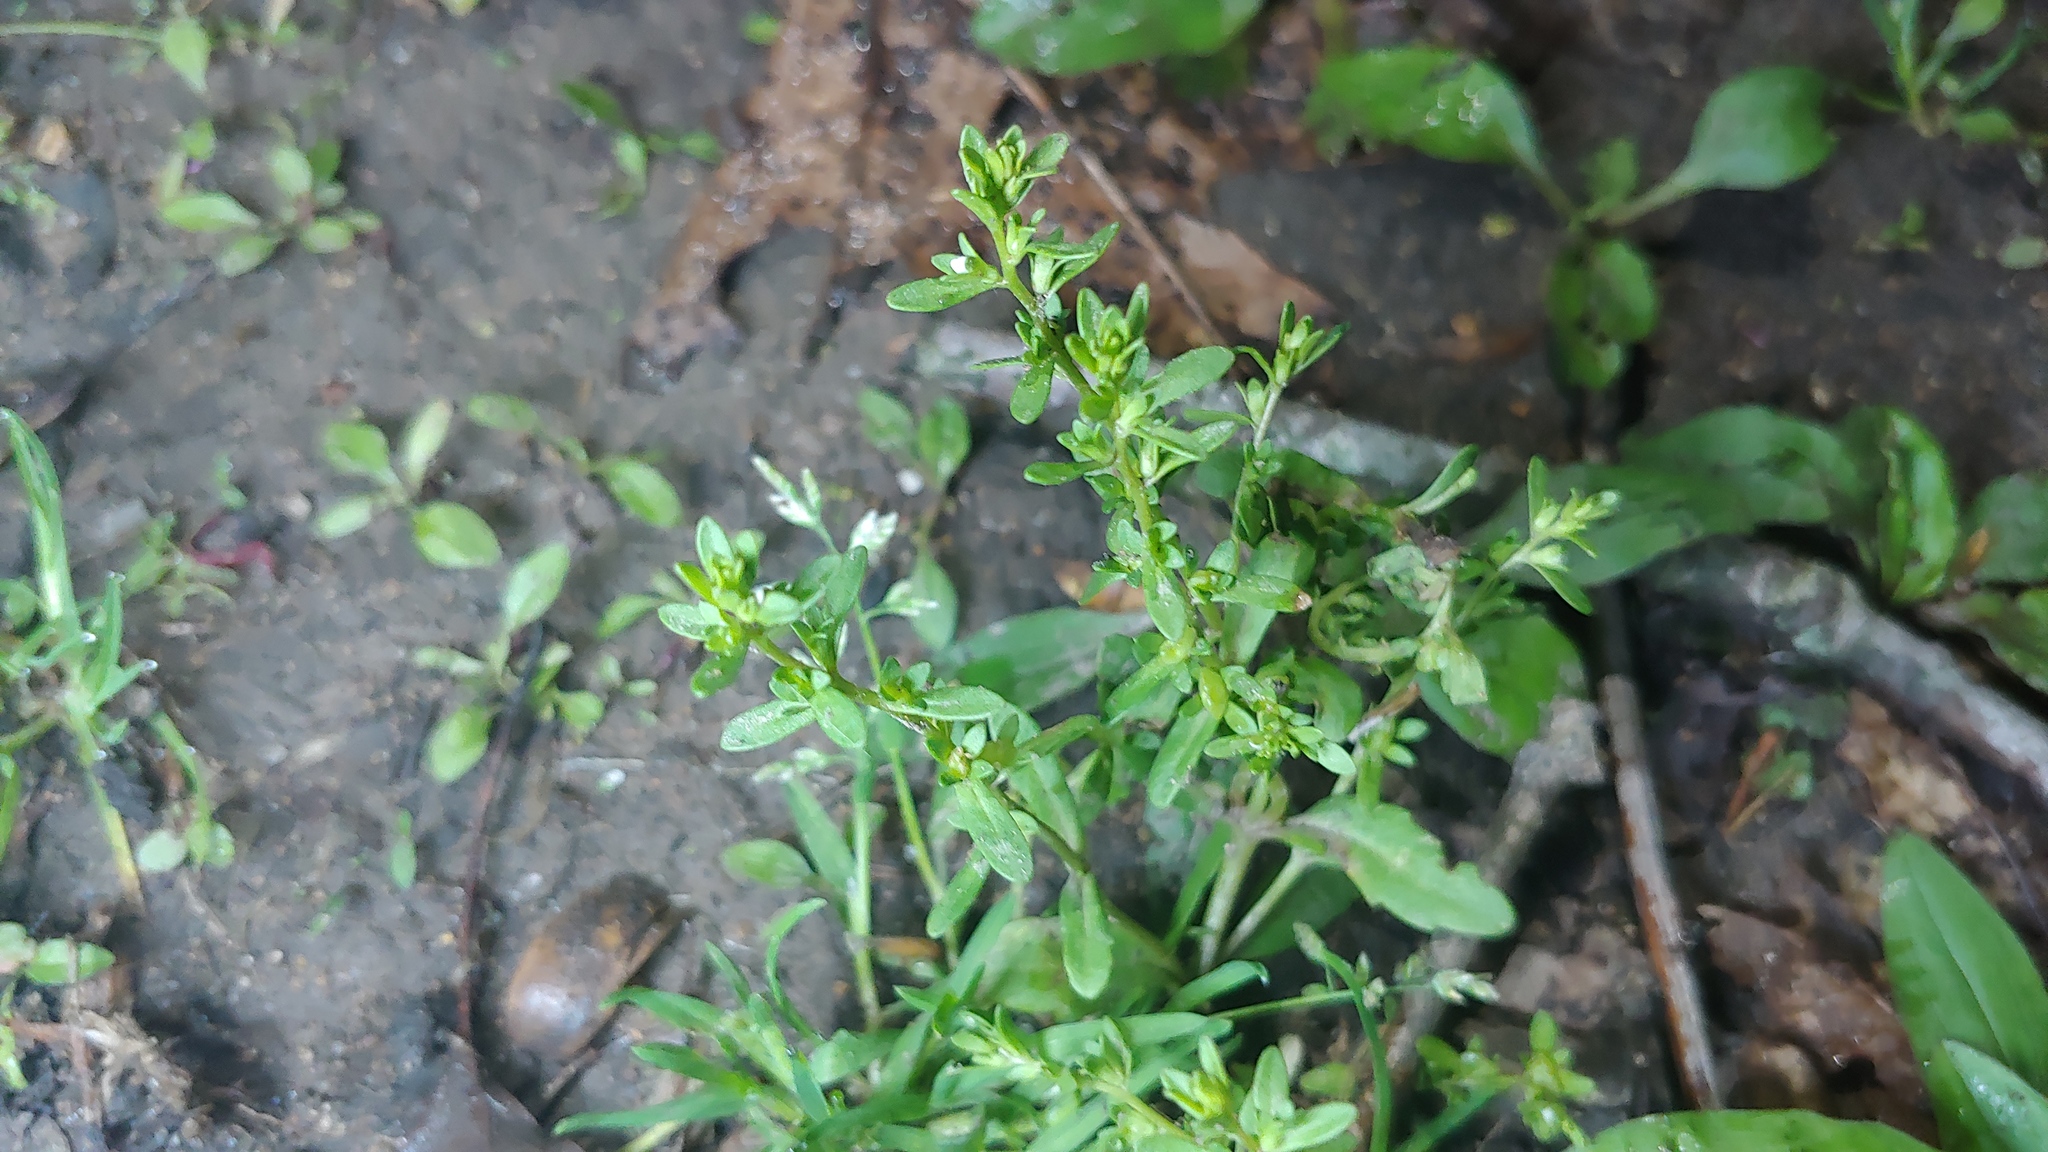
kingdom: Plantae
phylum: Tracheophyta
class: Magnoliopsida
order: Lamiales
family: Plantaginaceae
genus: Veronica
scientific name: Veronica peregrina
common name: Neckweed
